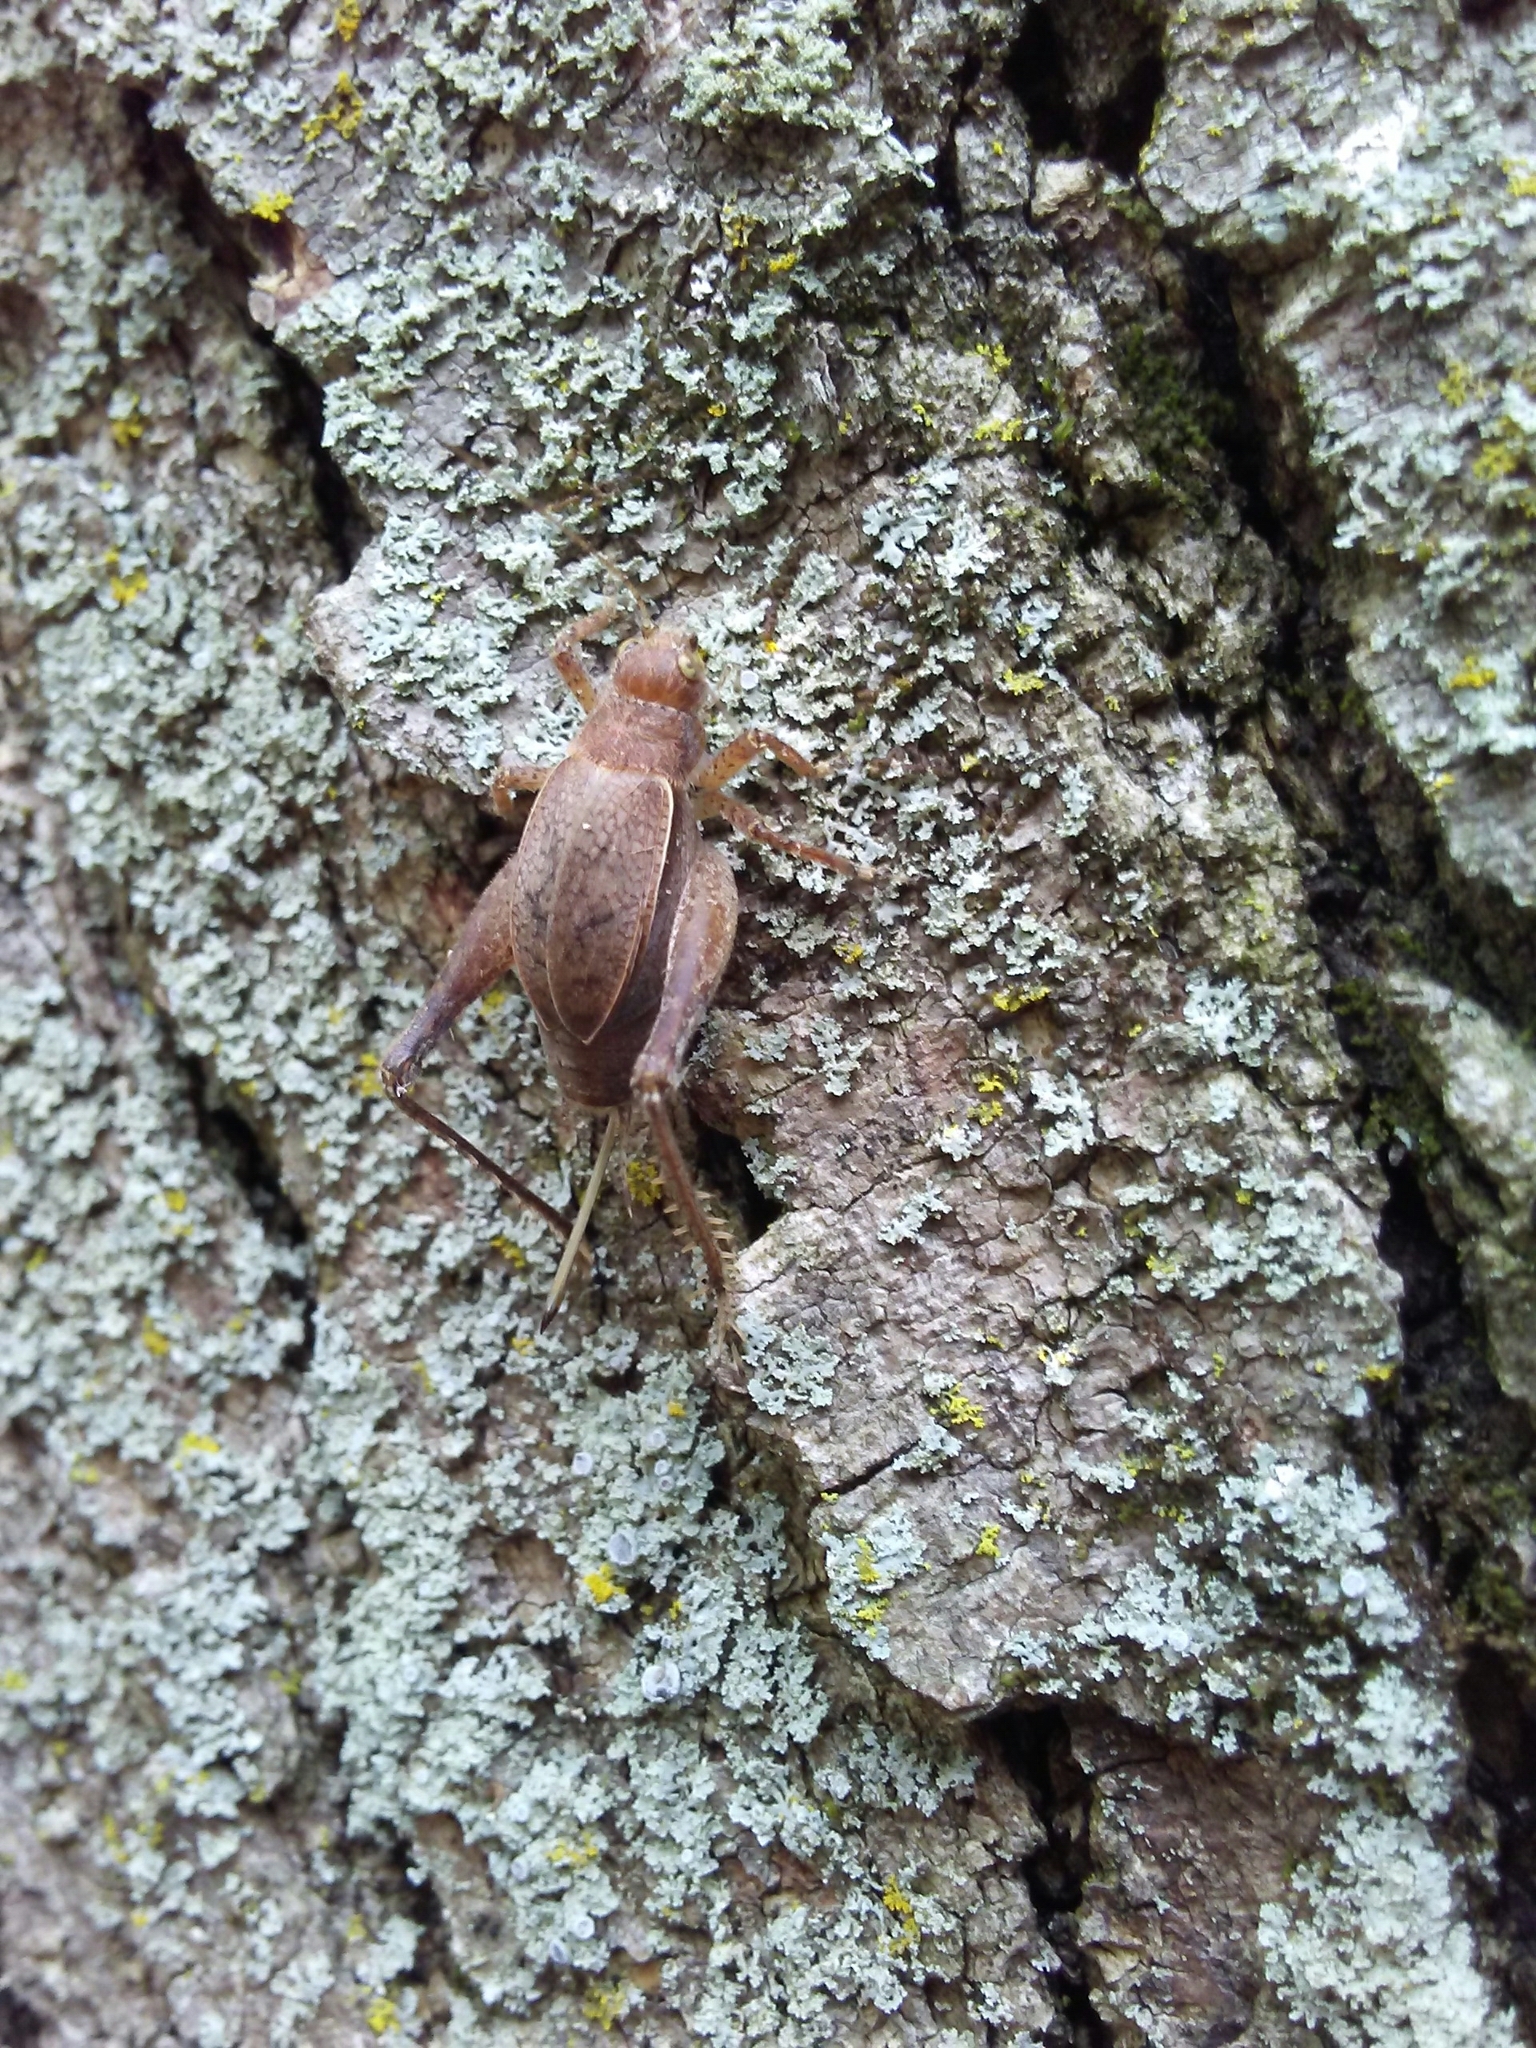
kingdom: Animalia
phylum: Arthropoda
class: Insecta
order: Orthoptera
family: Gryllidae
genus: Hapithus
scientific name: Hapithus agitator
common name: Restless bush cricket
